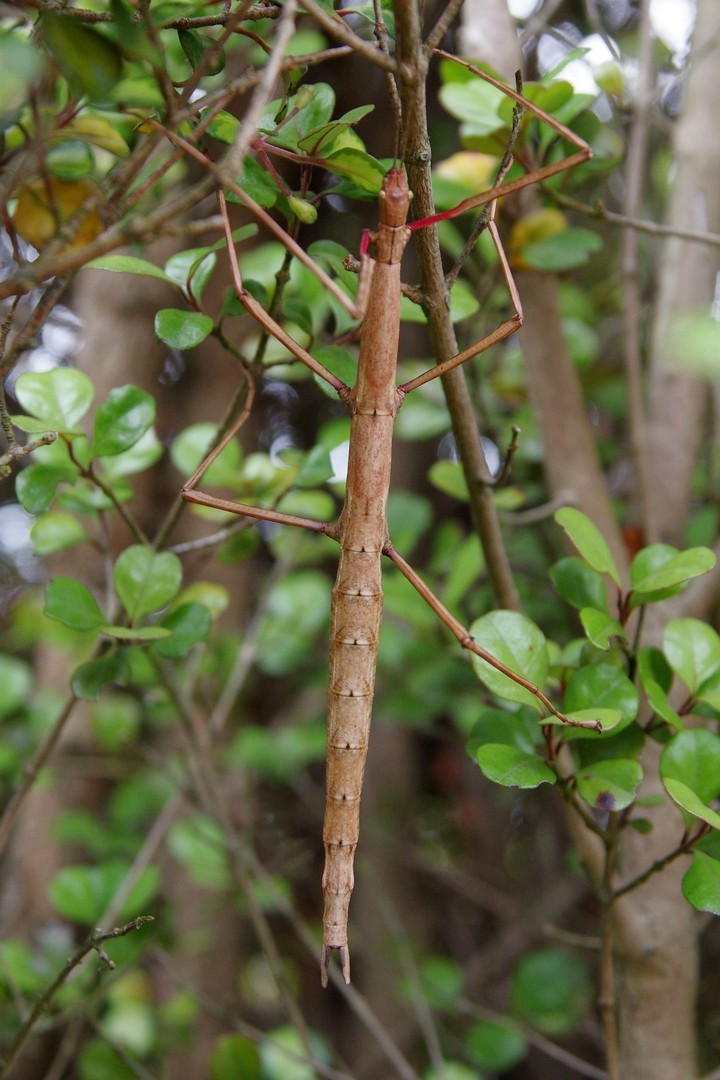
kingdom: Animalia
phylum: Arthropoda
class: Insecta
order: Phasmida
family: Phasmatidae
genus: Acanthoxyla
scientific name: Acanthoxyla inermis
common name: Unarmed stick insect
